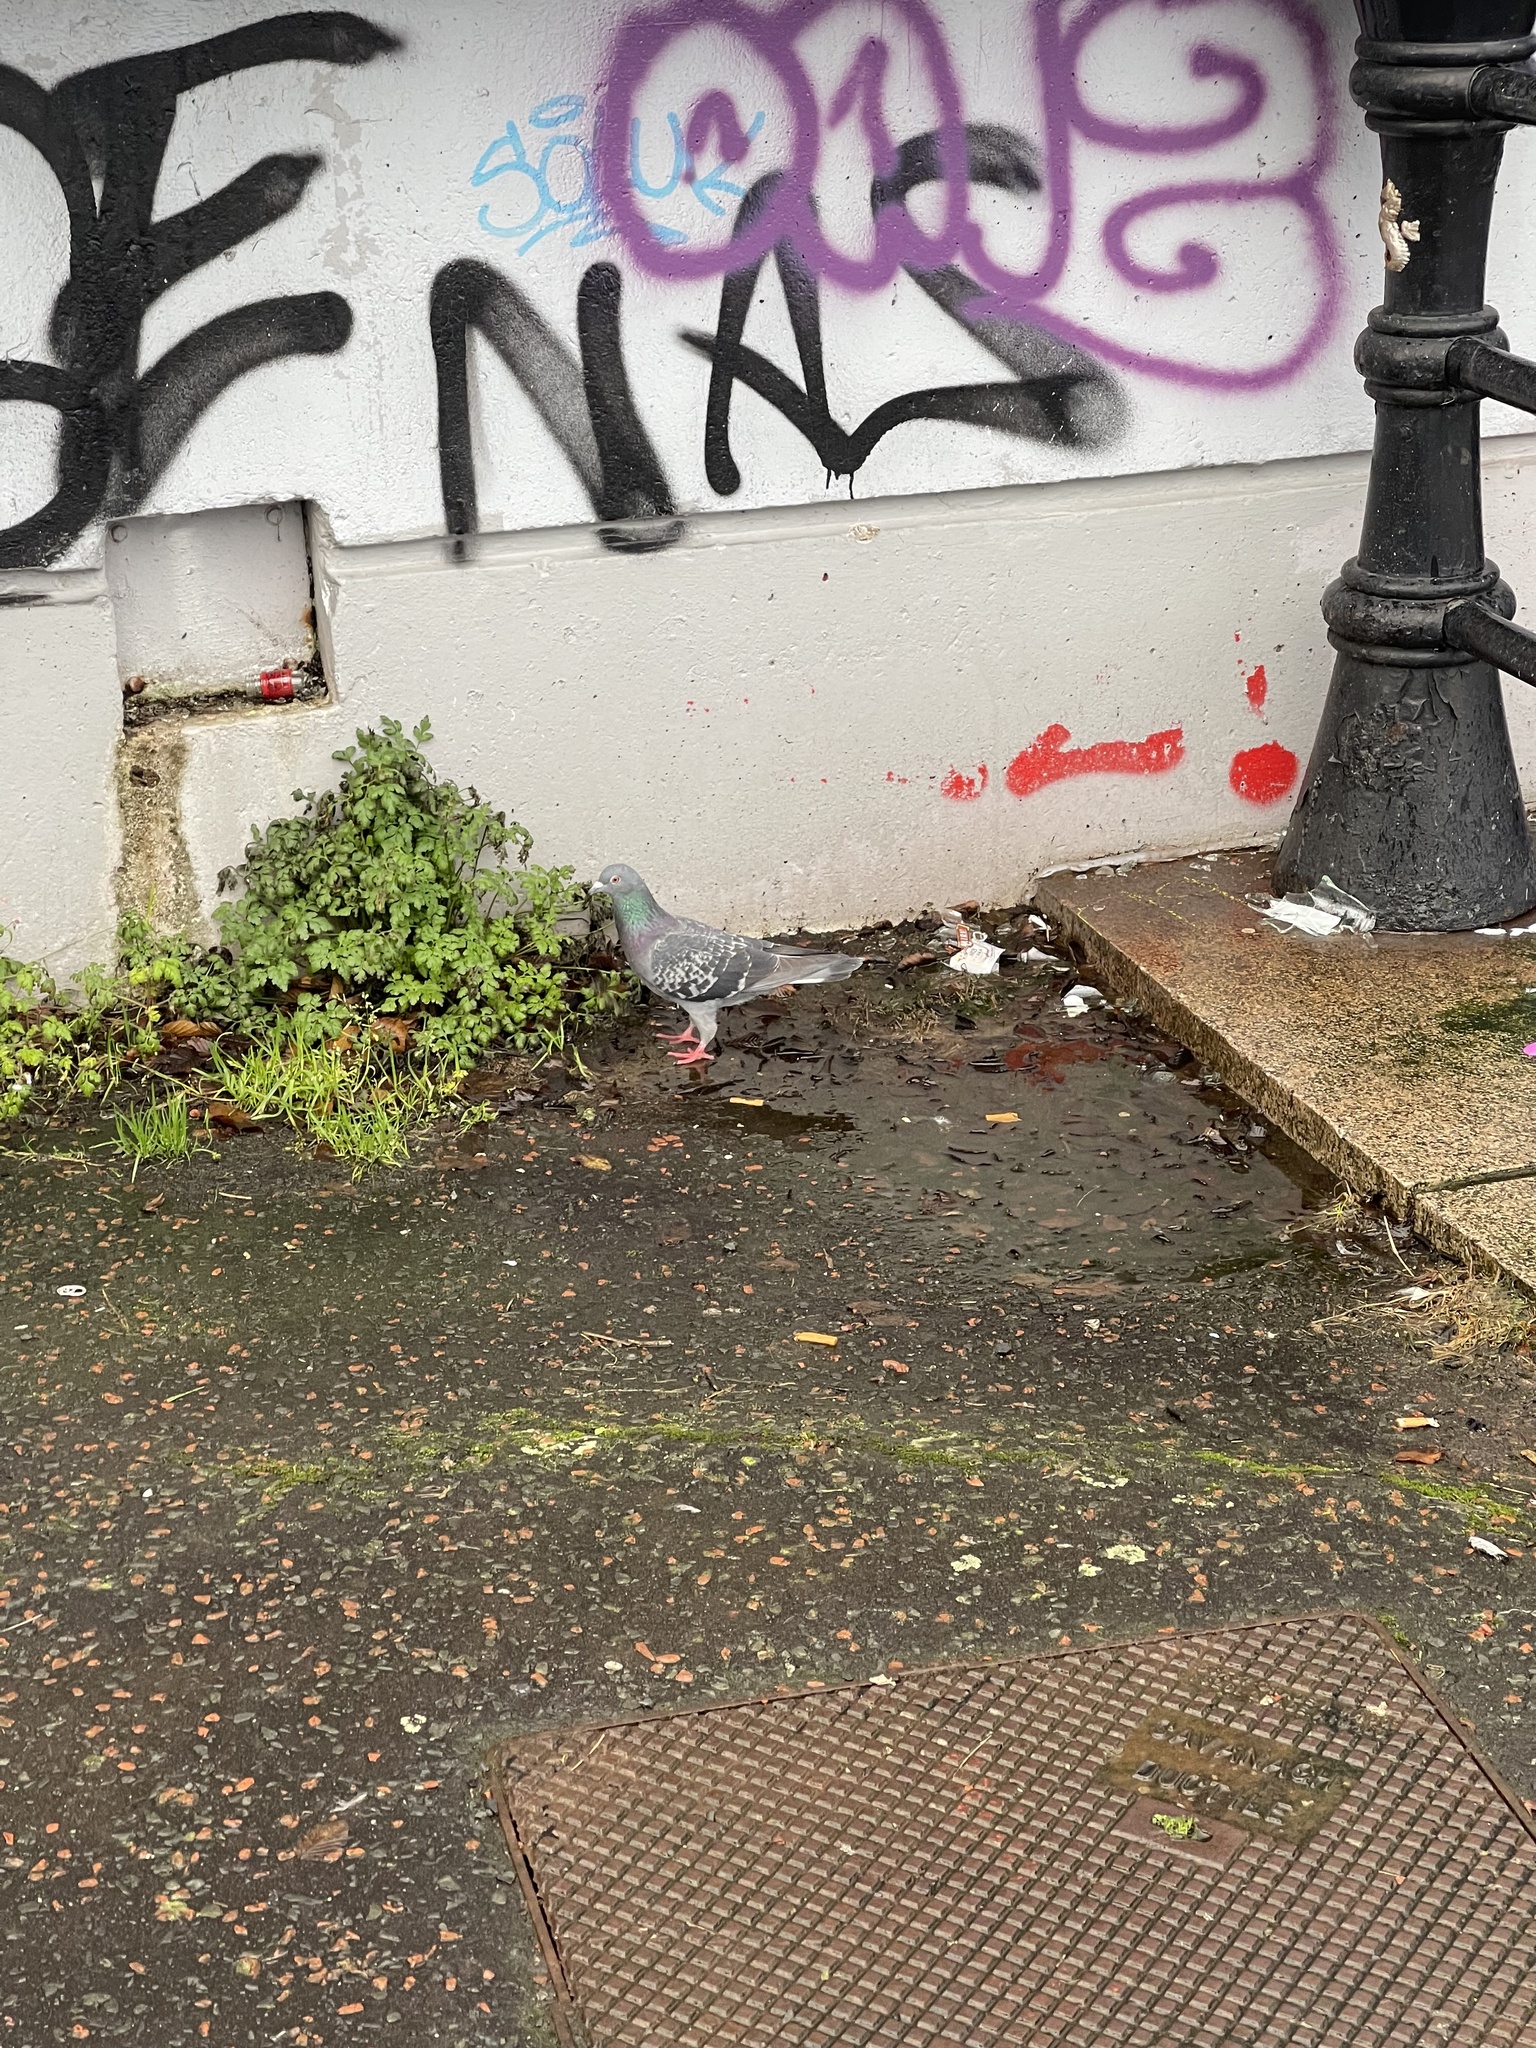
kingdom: Animalia
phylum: Chordata
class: Aves
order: Columbiformes
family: Columbidae
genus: Columba
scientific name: Columba livia
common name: Rock pigeon
